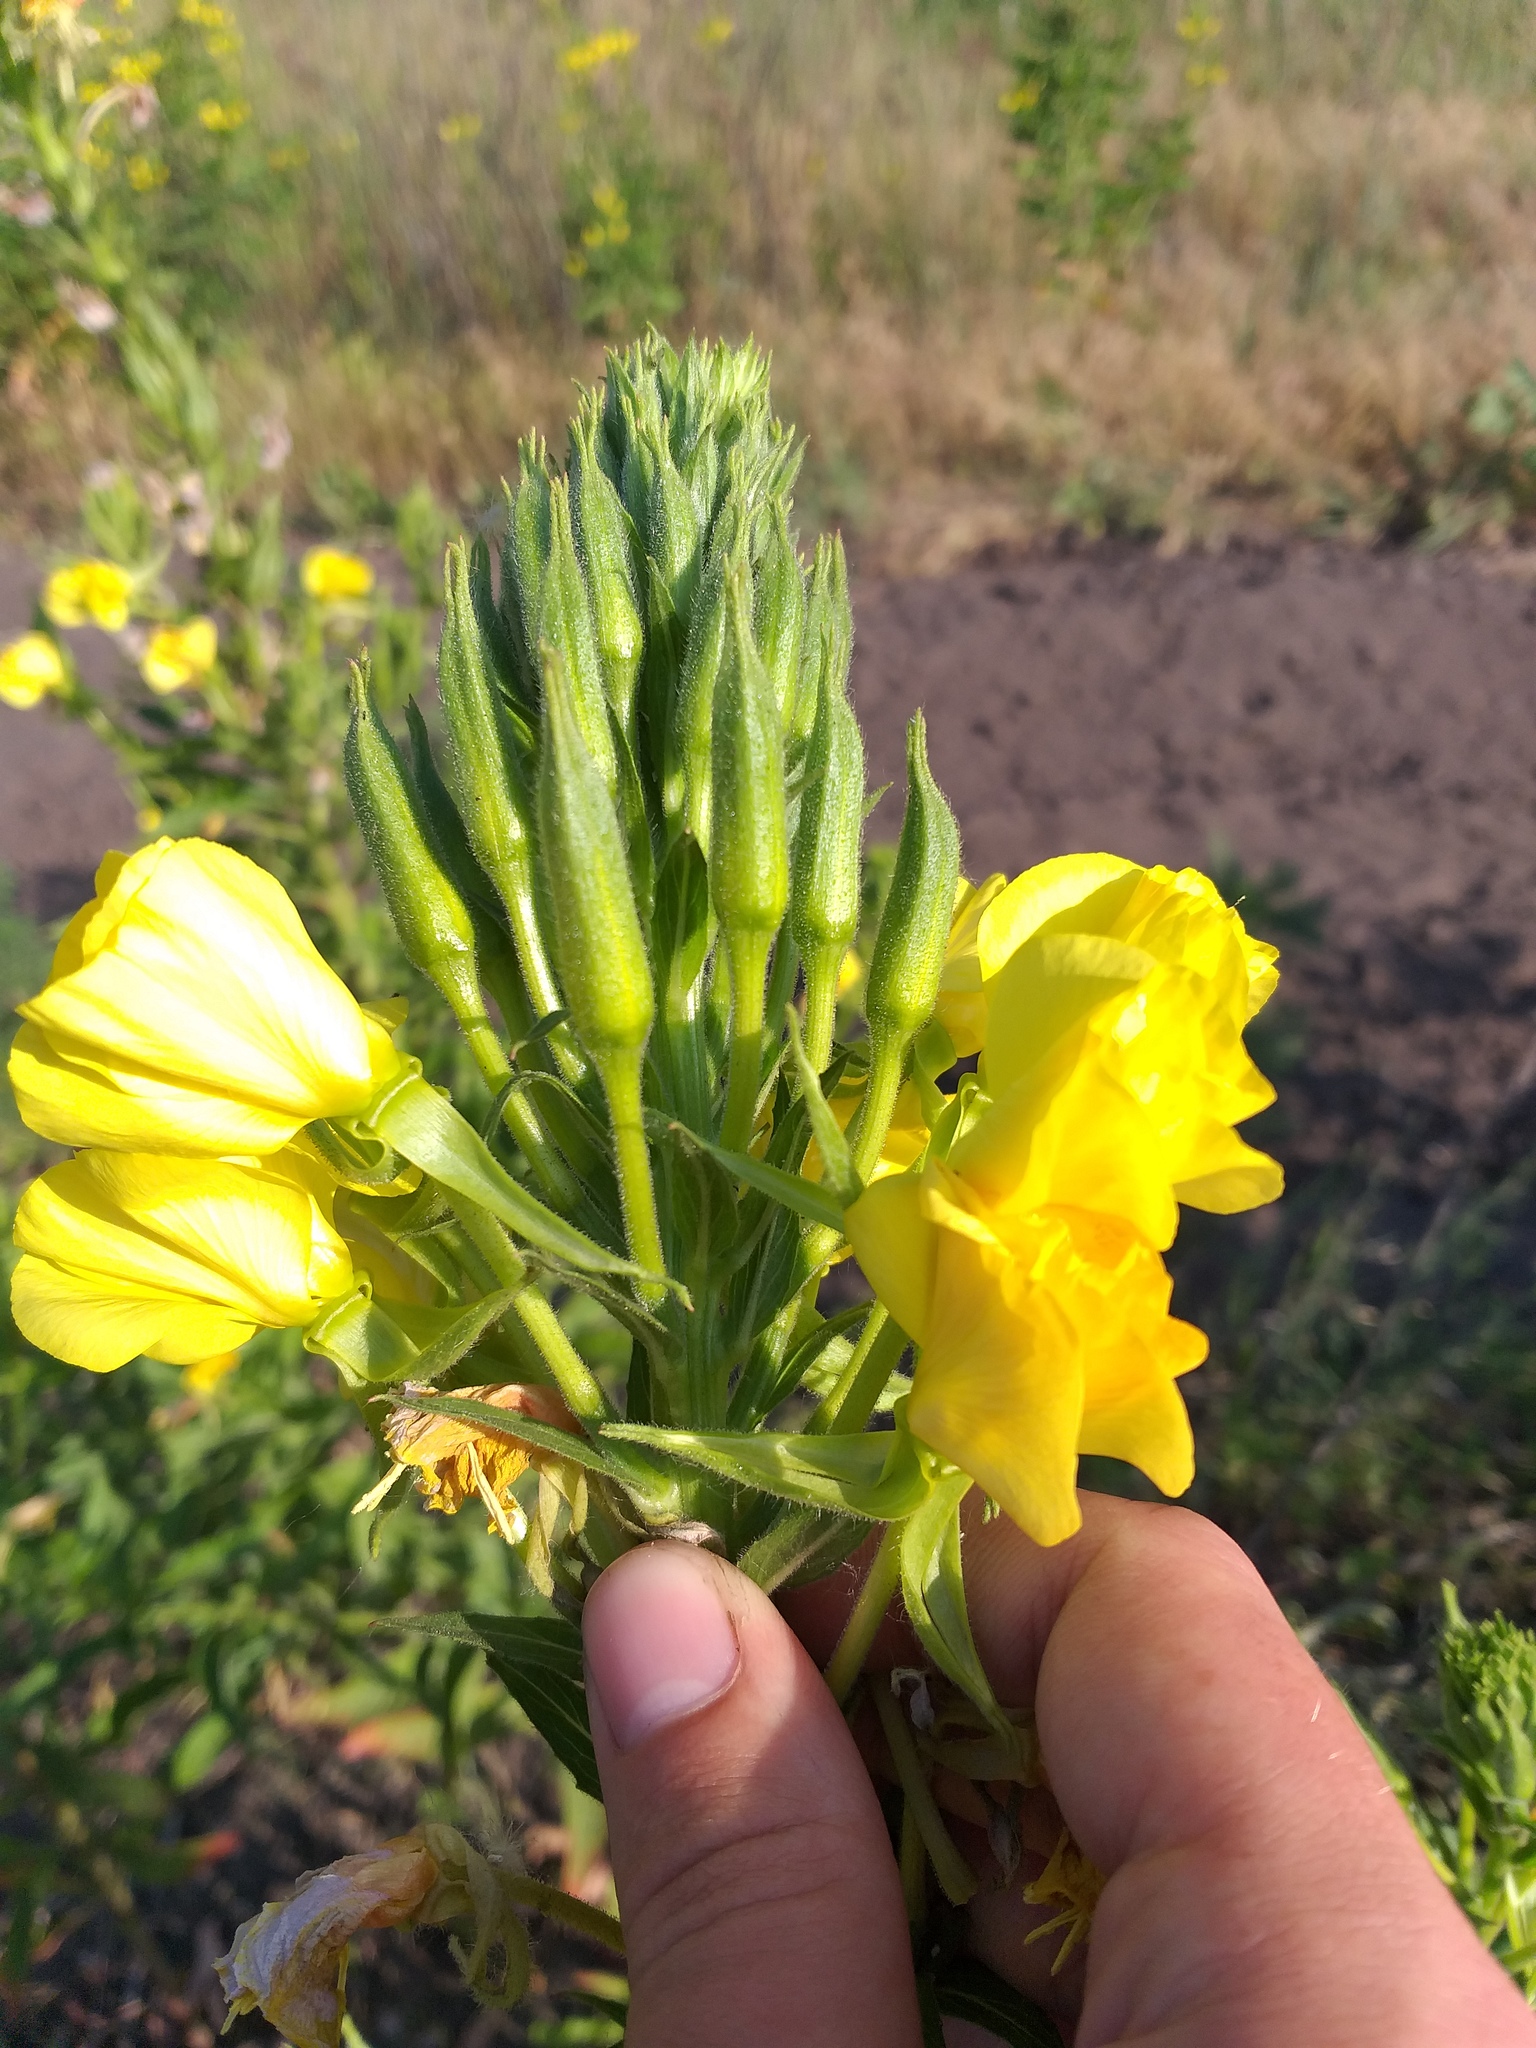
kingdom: Plantae
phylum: Tracheophyta
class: Magnoliopsida
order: Myrtales
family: Onagraceae
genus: Oenothera
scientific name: Oenothera biennis
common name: Common evening-primrose
